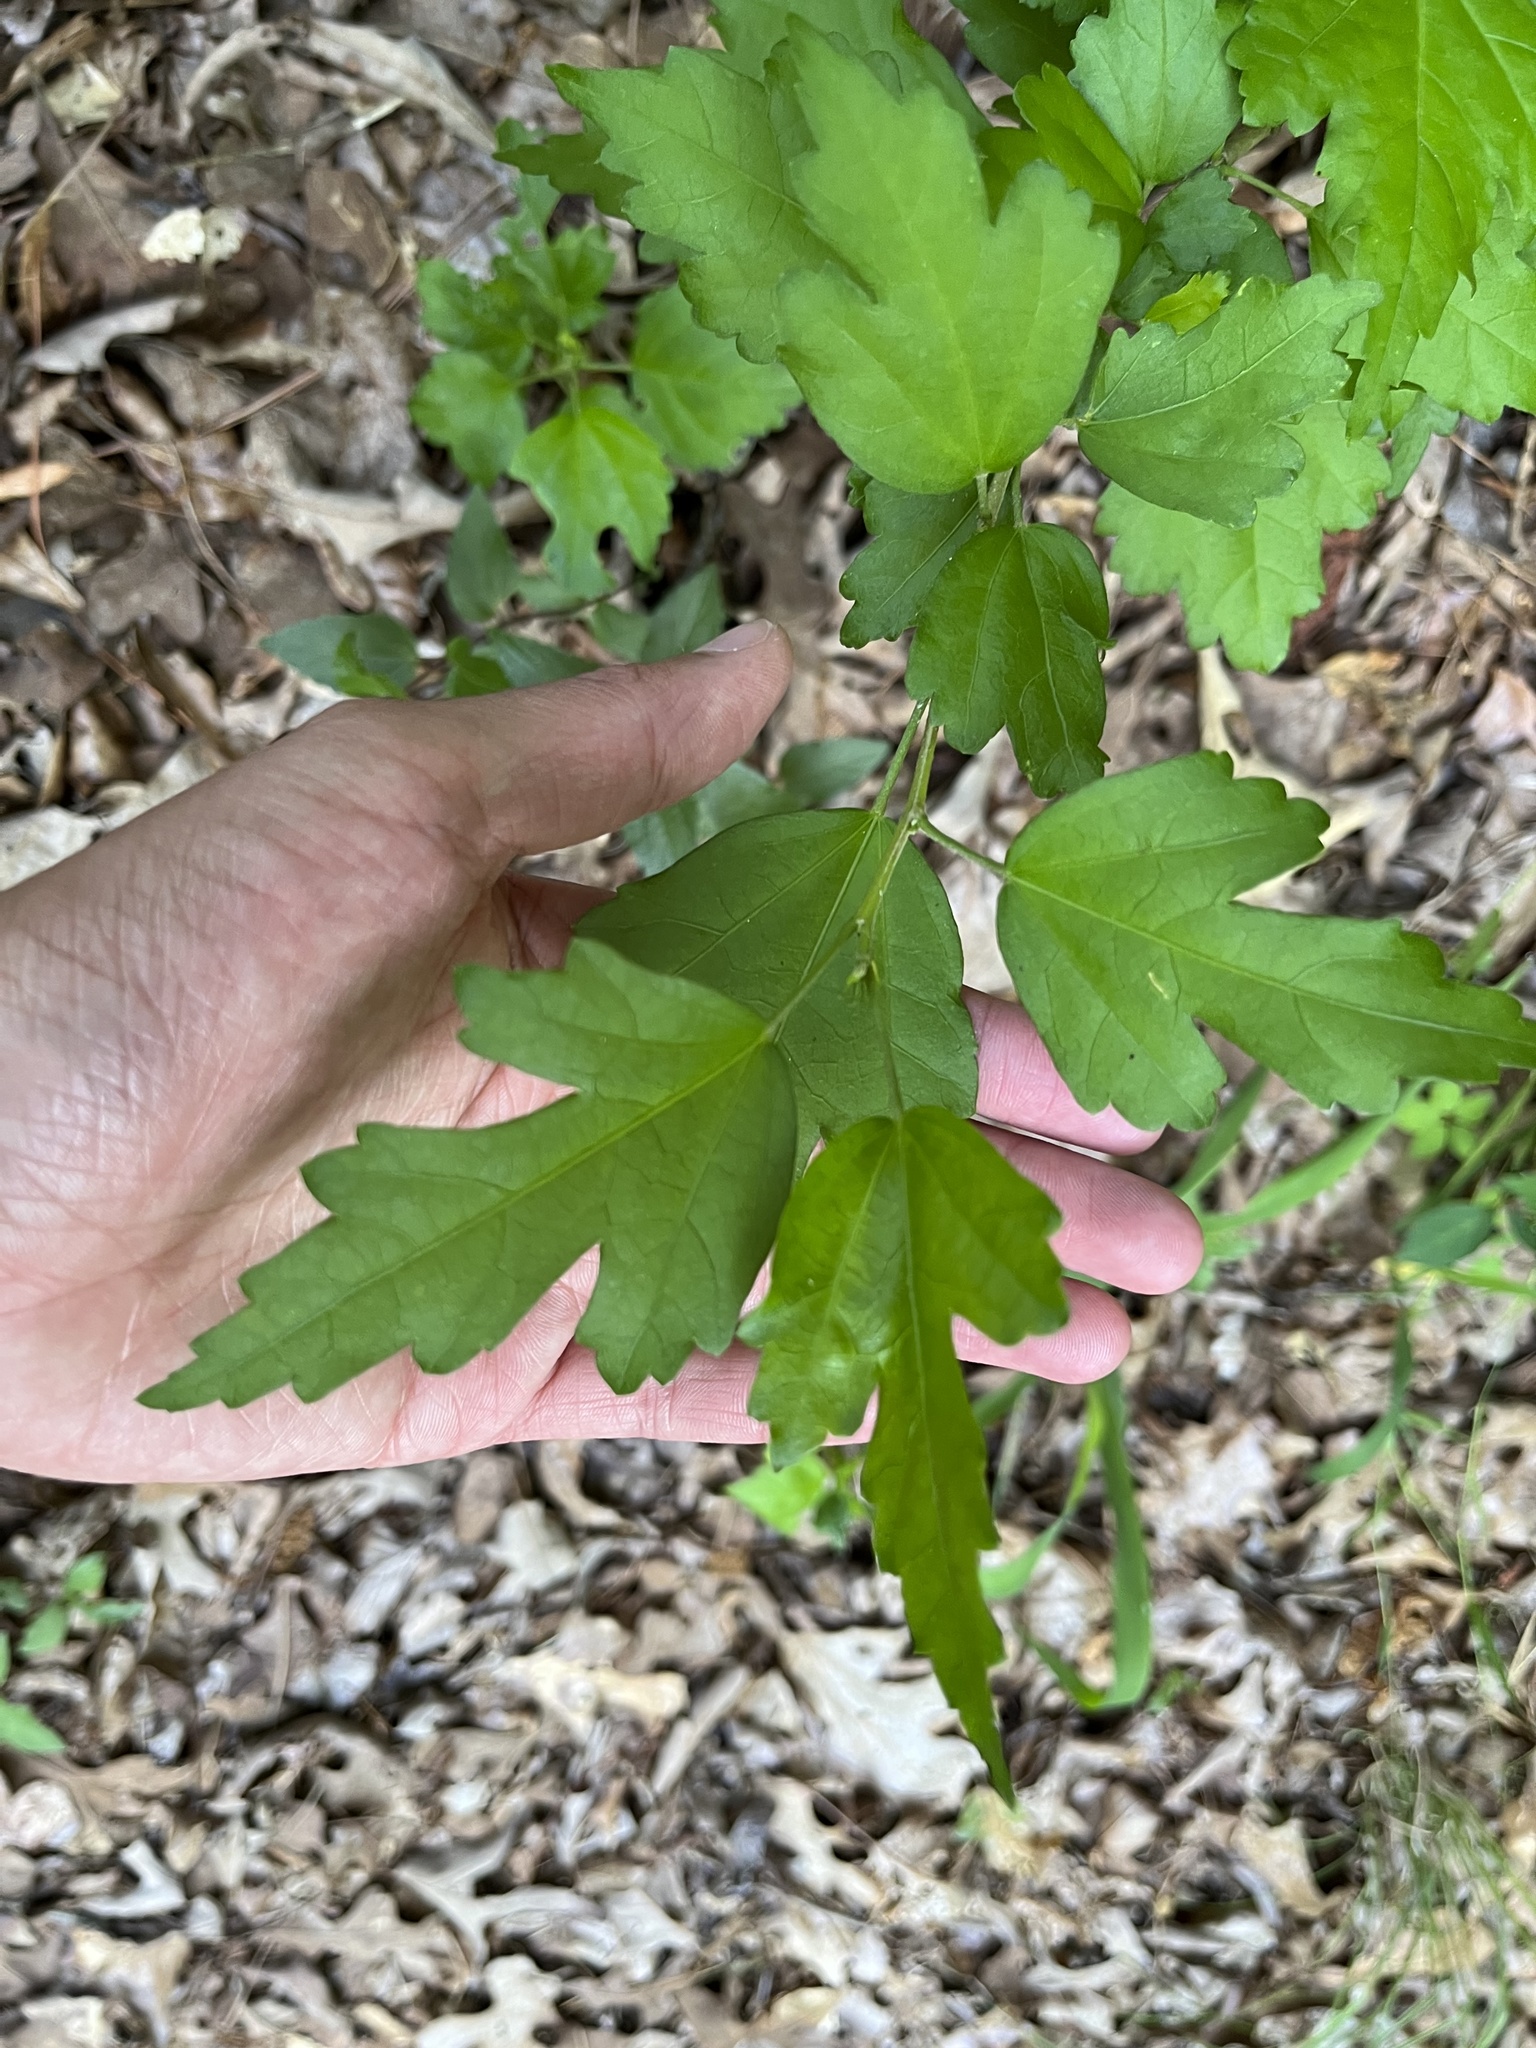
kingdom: Plantae
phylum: Tracheophyta
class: Magnoliopsida
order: Malvales
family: Malvaceae
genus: Hibiscus
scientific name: Hibiscus syriacus
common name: Syrian ketmia
